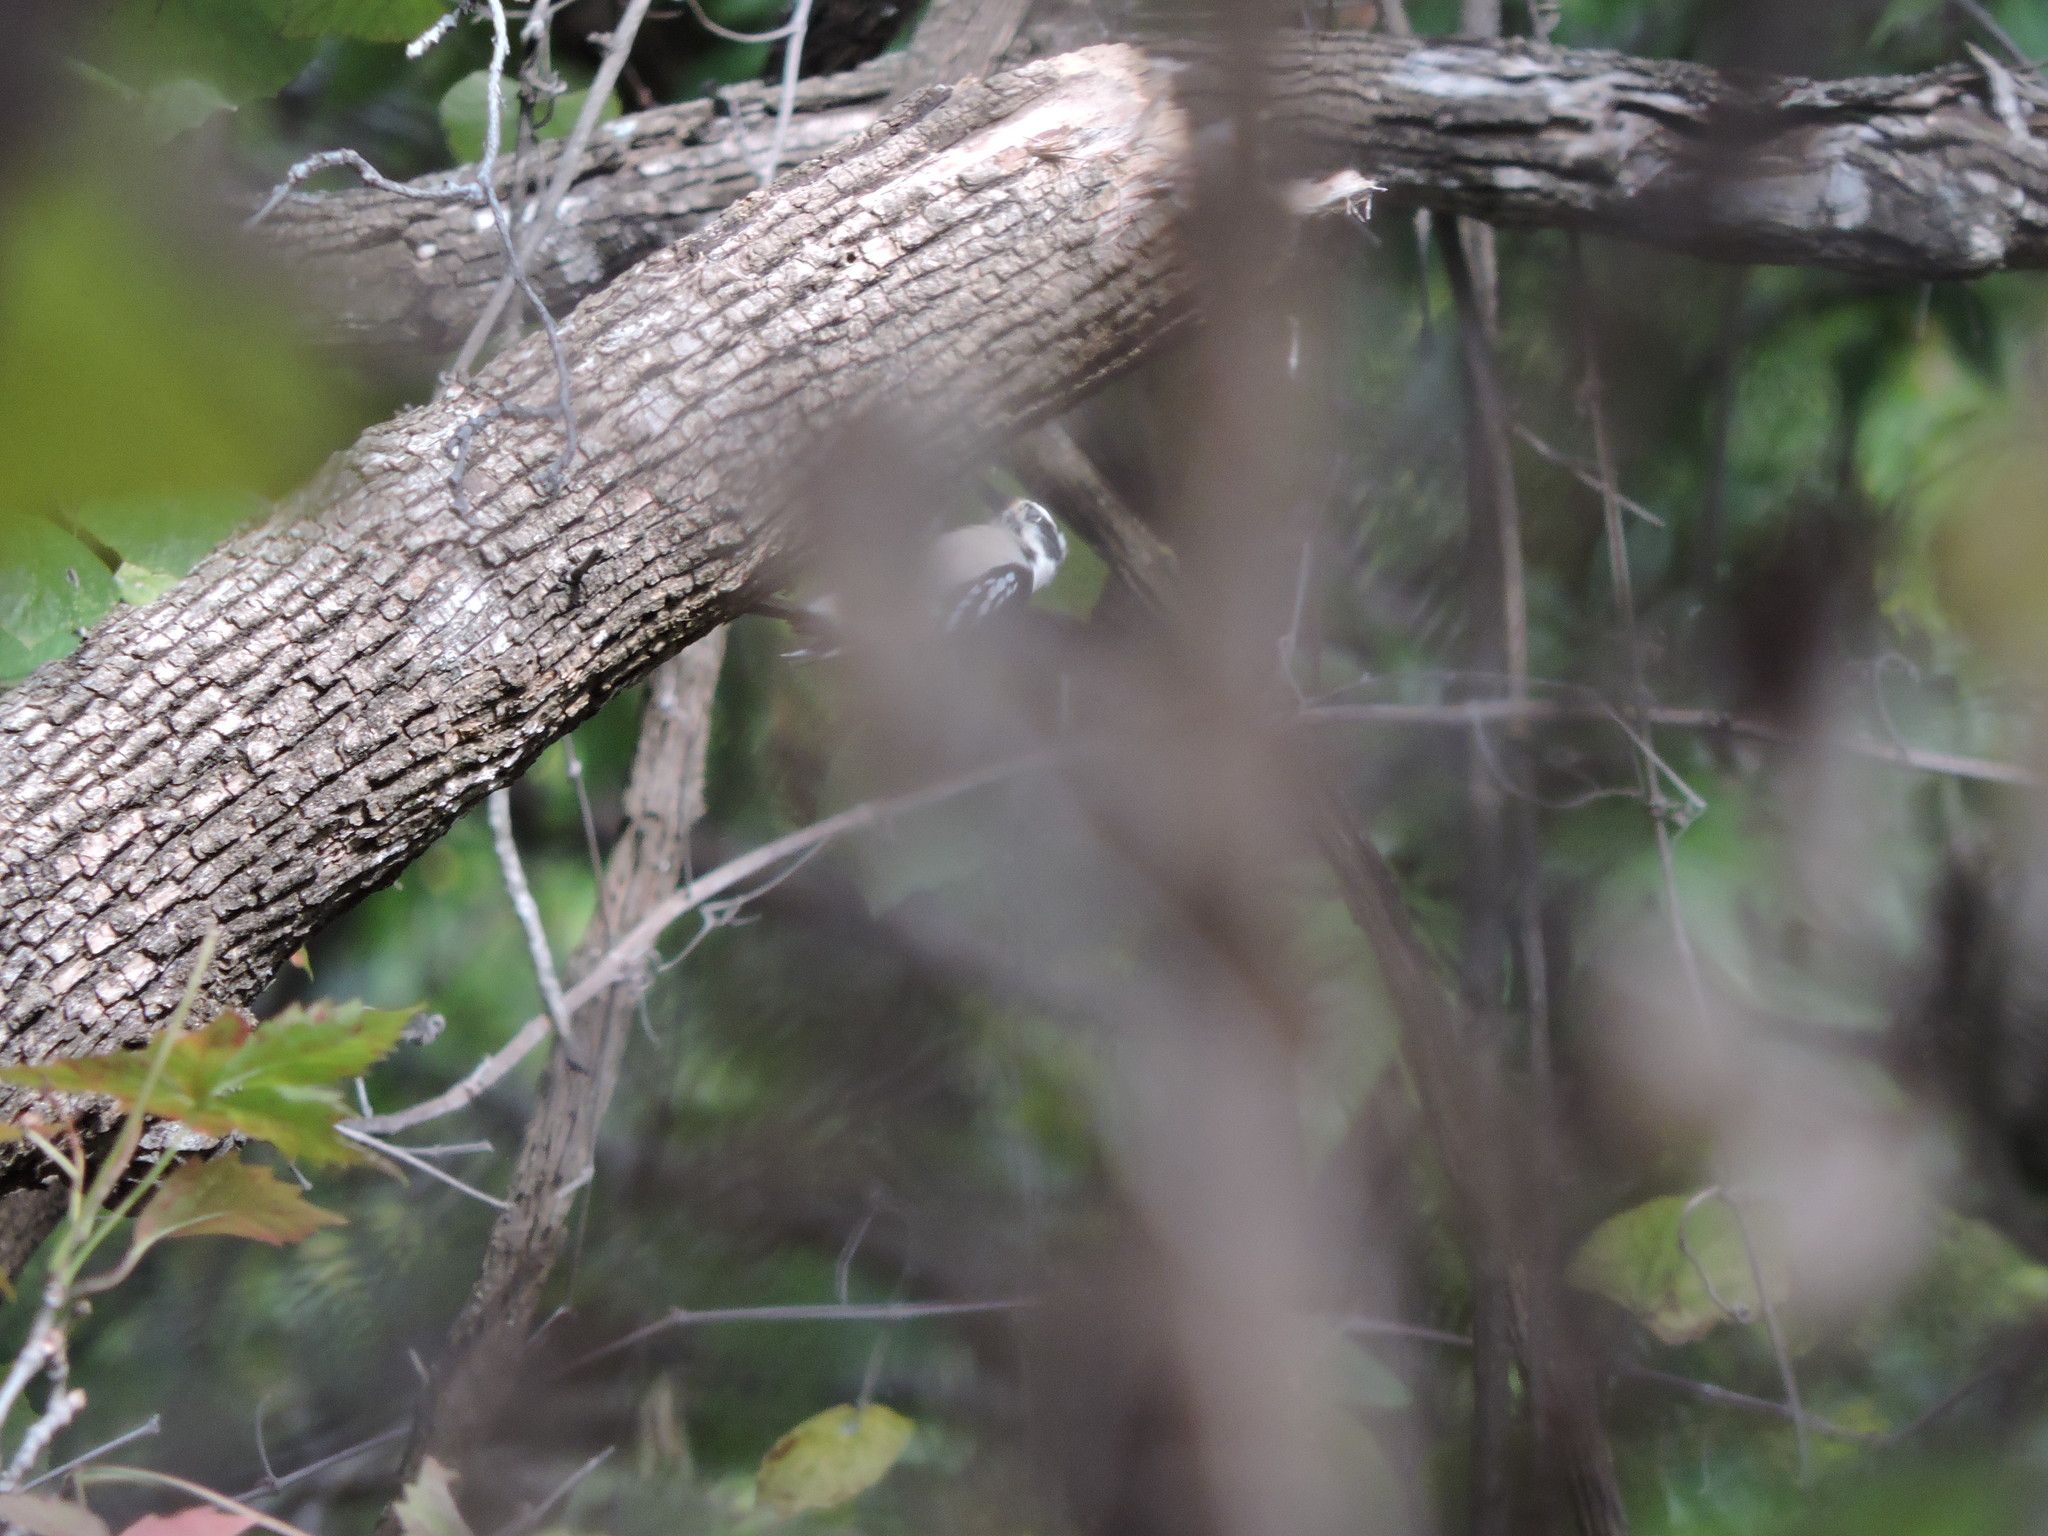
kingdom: Animalia
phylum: Chordata
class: Aves
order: Piciformes
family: Picidae
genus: Dryobates
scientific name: Dryobates pubescens
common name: Downy woodpecker
